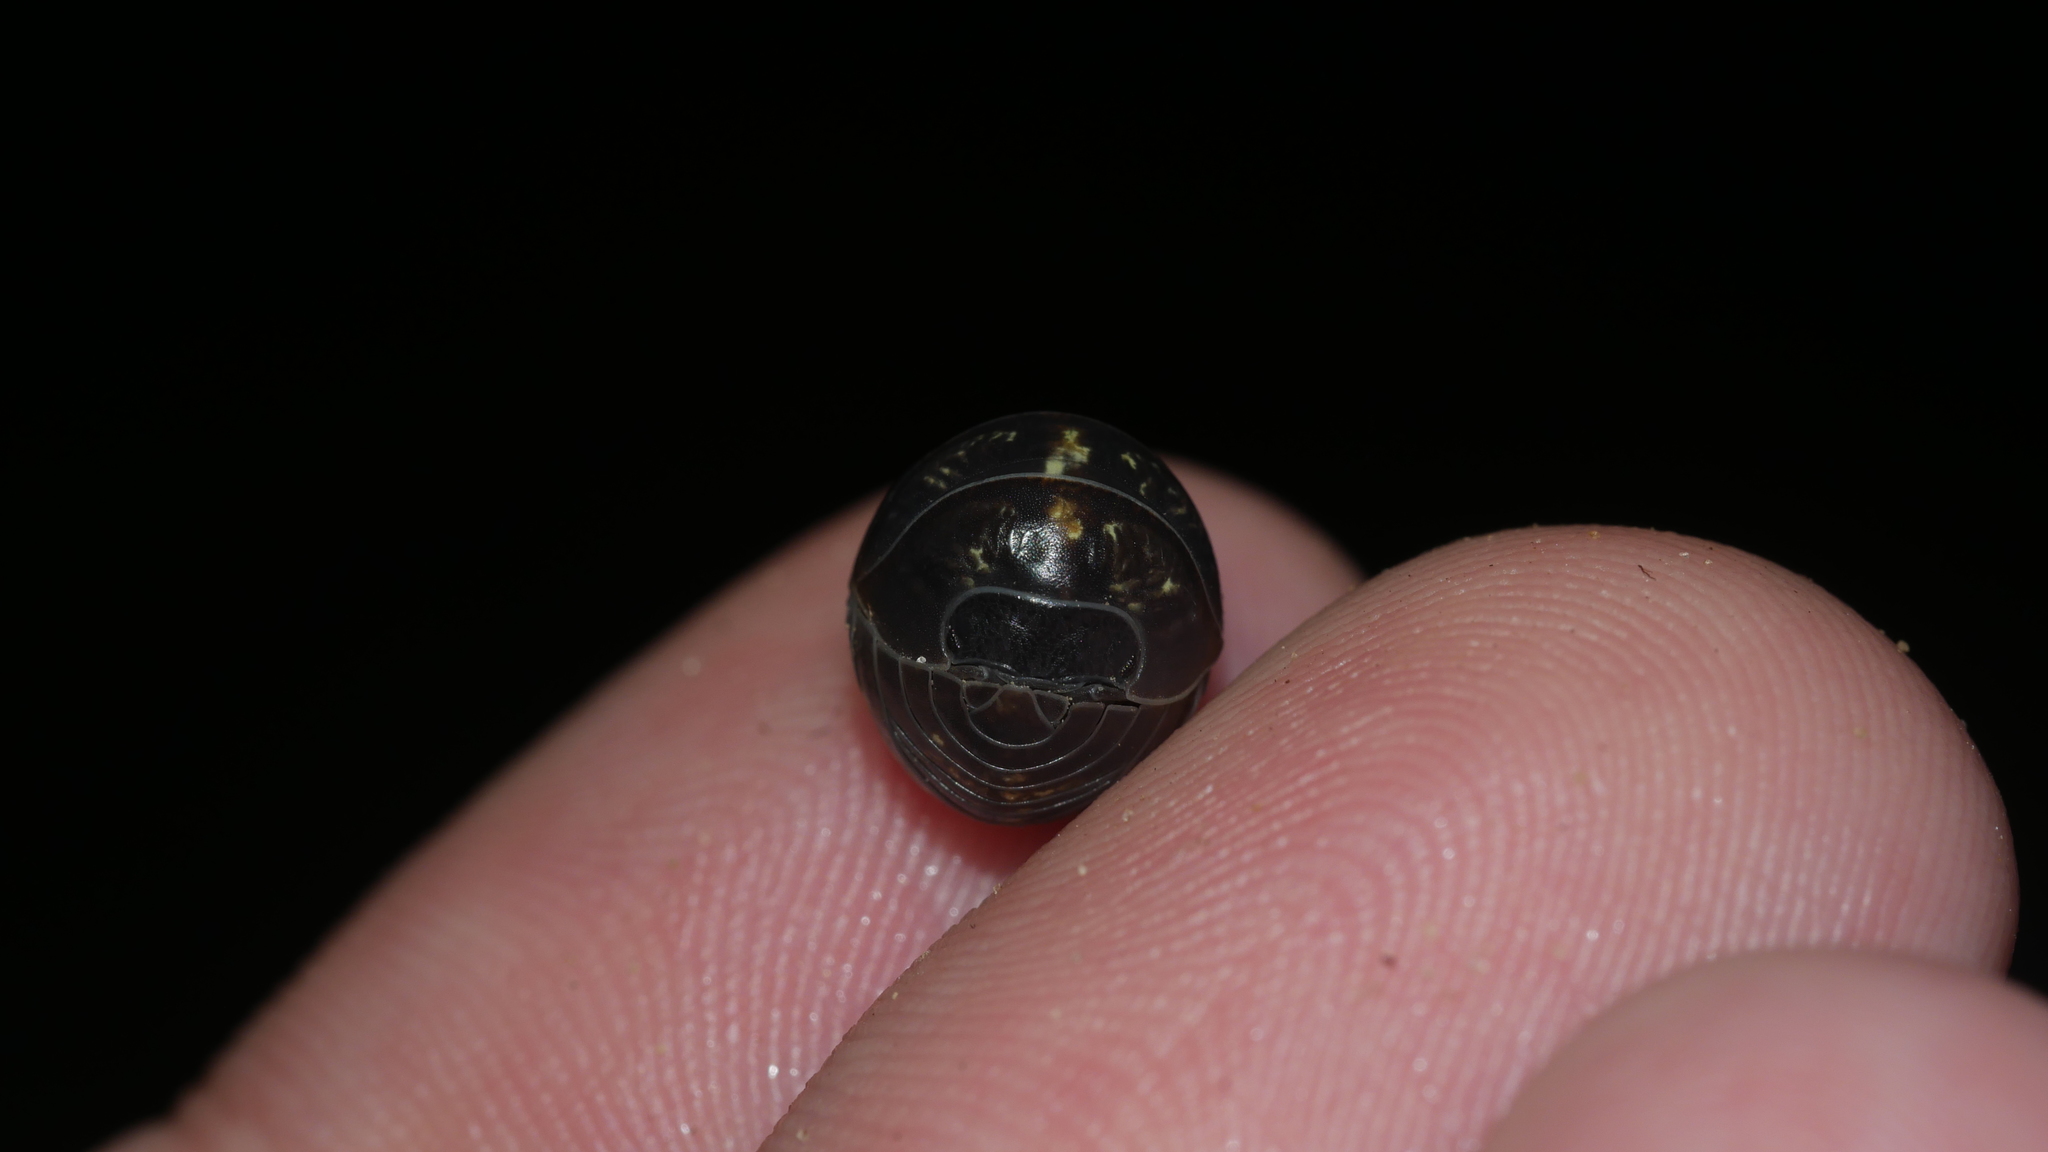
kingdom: Animalia
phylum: Arthropoda
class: Malacostraca
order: Isopoda
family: Armadillidiidae
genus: Armadillidium
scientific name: Armadillidium vulgare
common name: Common pill woodlouse
